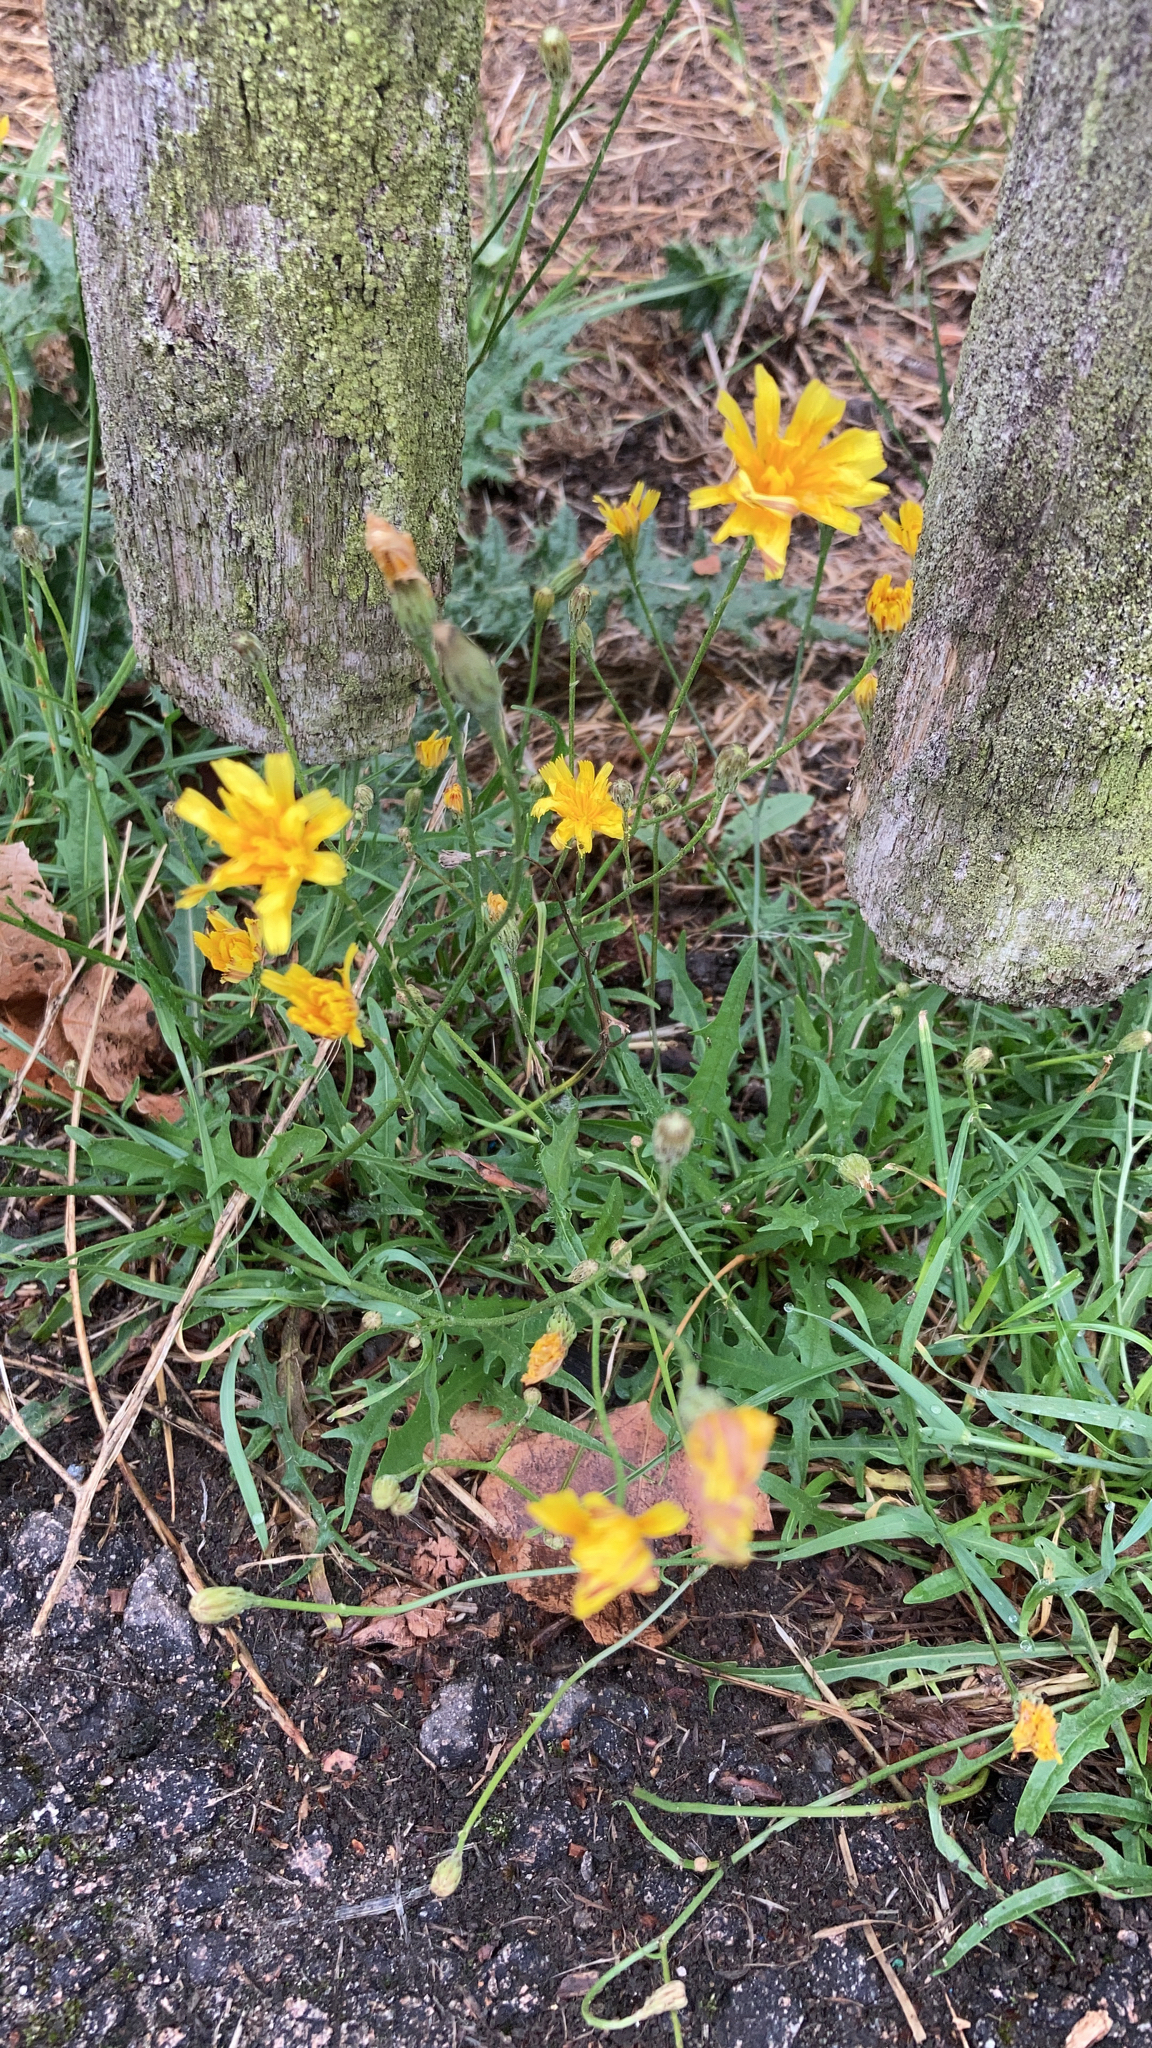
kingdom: Plantae
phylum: Tracheophyta
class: Magnoliopsida
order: Asterales
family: Asteraceae
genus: Scorzoneroides
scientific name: Scorzoneroides autumnalis
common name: Autumn hawkbit
